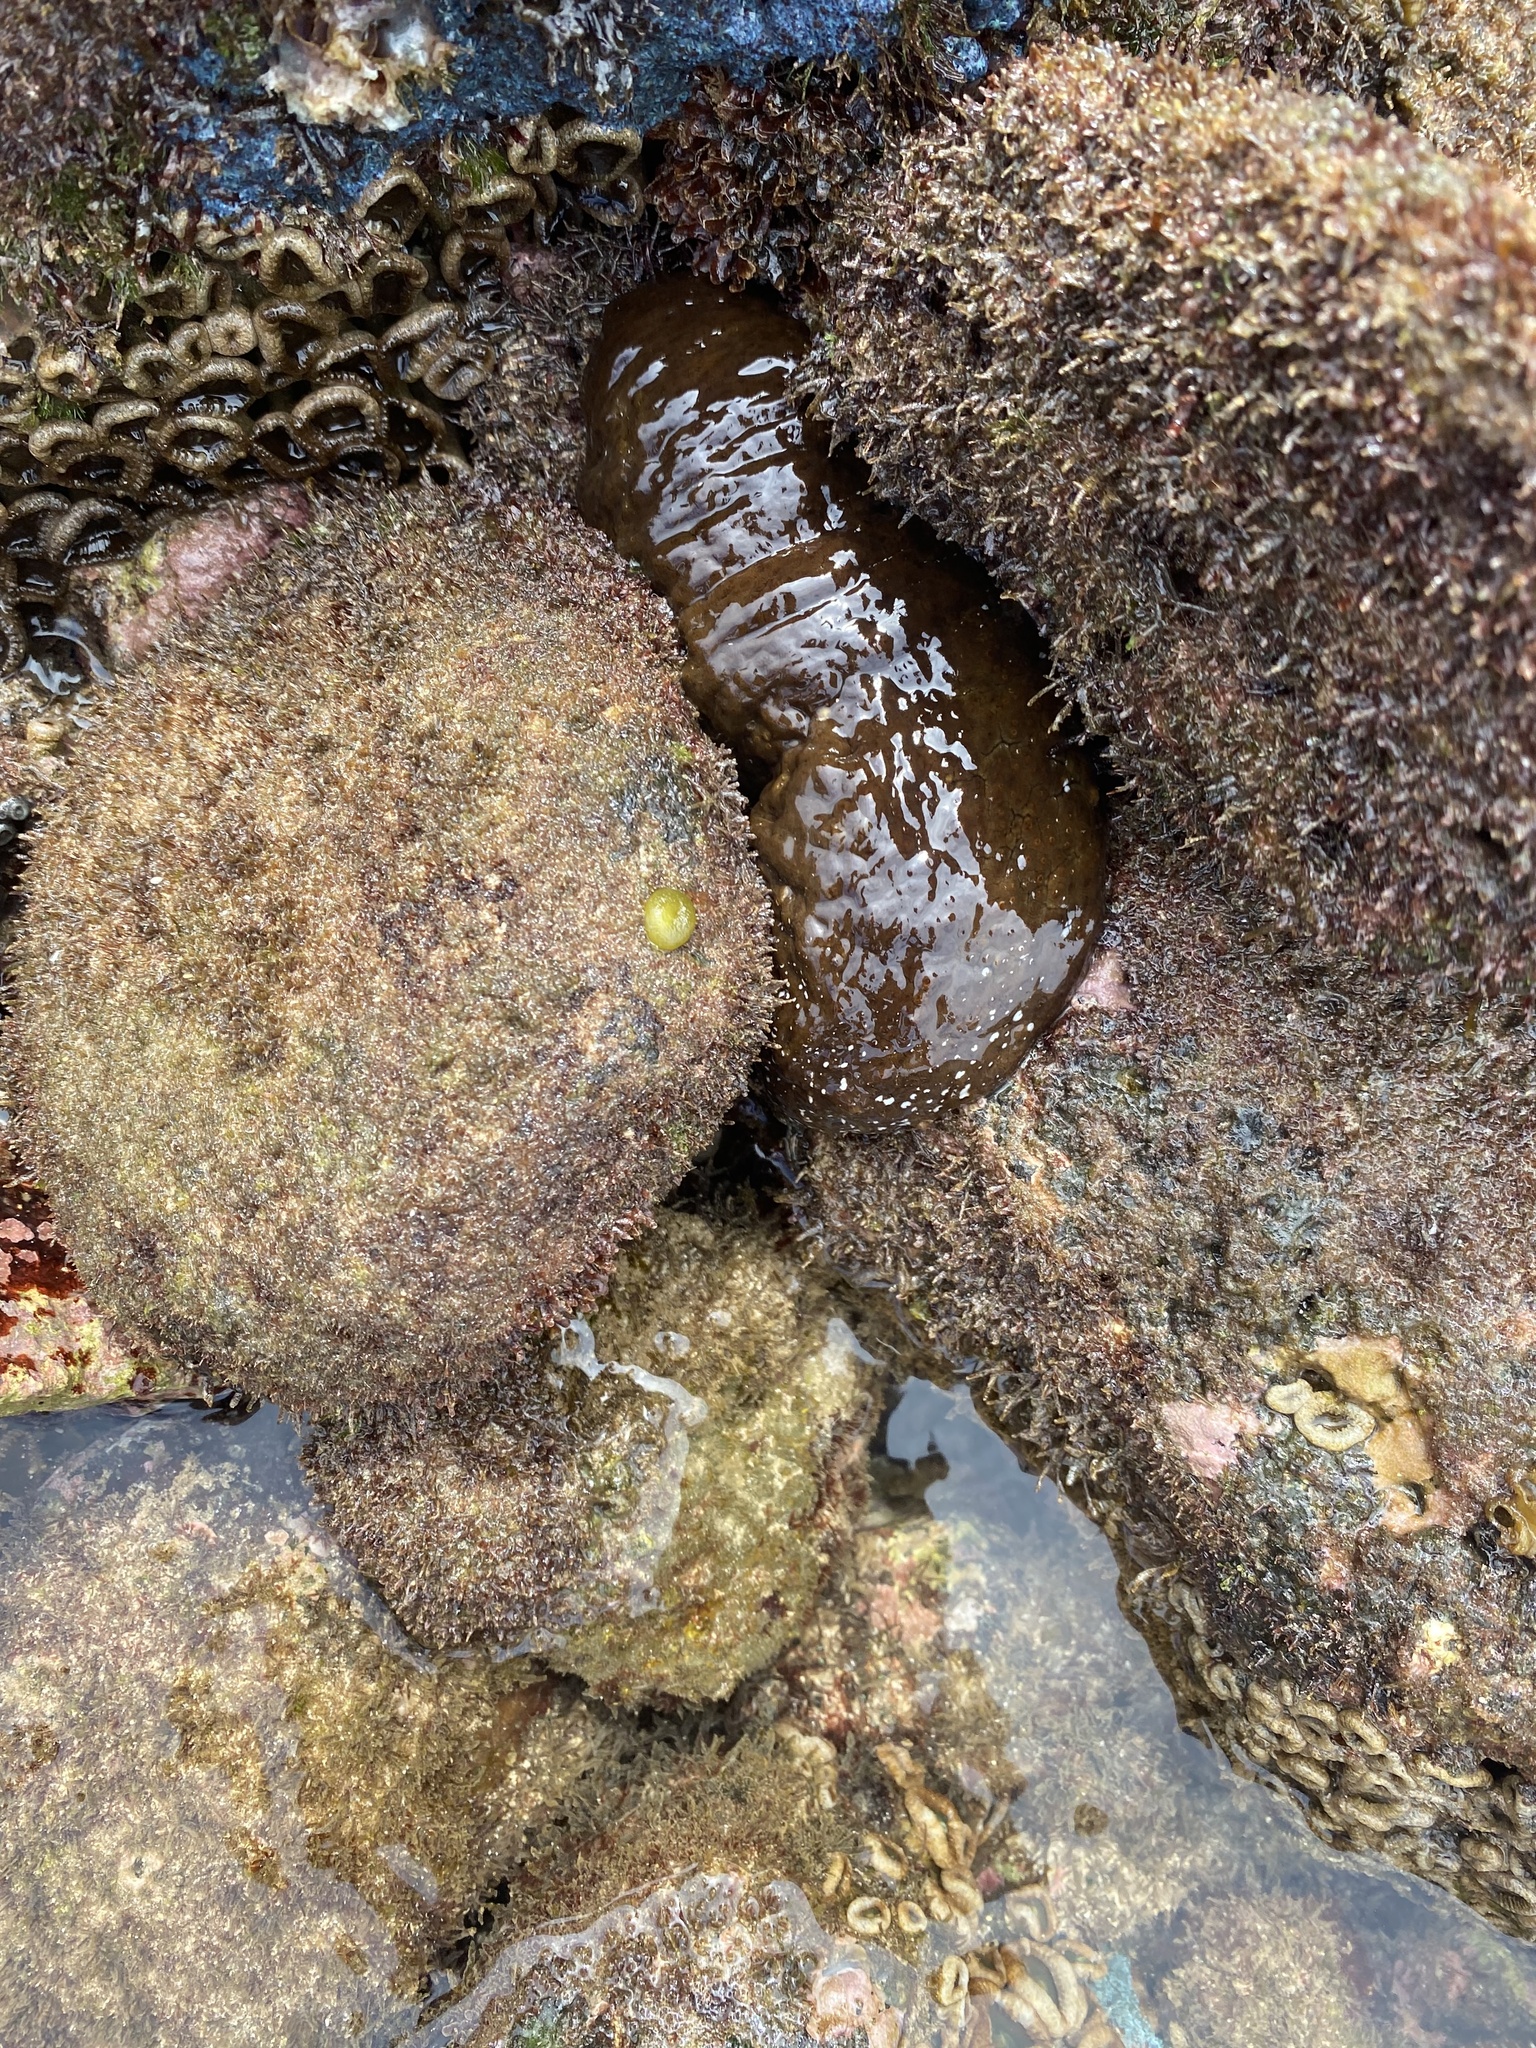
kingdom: Animalia
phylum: Echinodermata
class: Holothuroidea
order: Holothuriida
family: Holothuriidae
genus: Actinopyga
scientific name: Actinopyga varians
